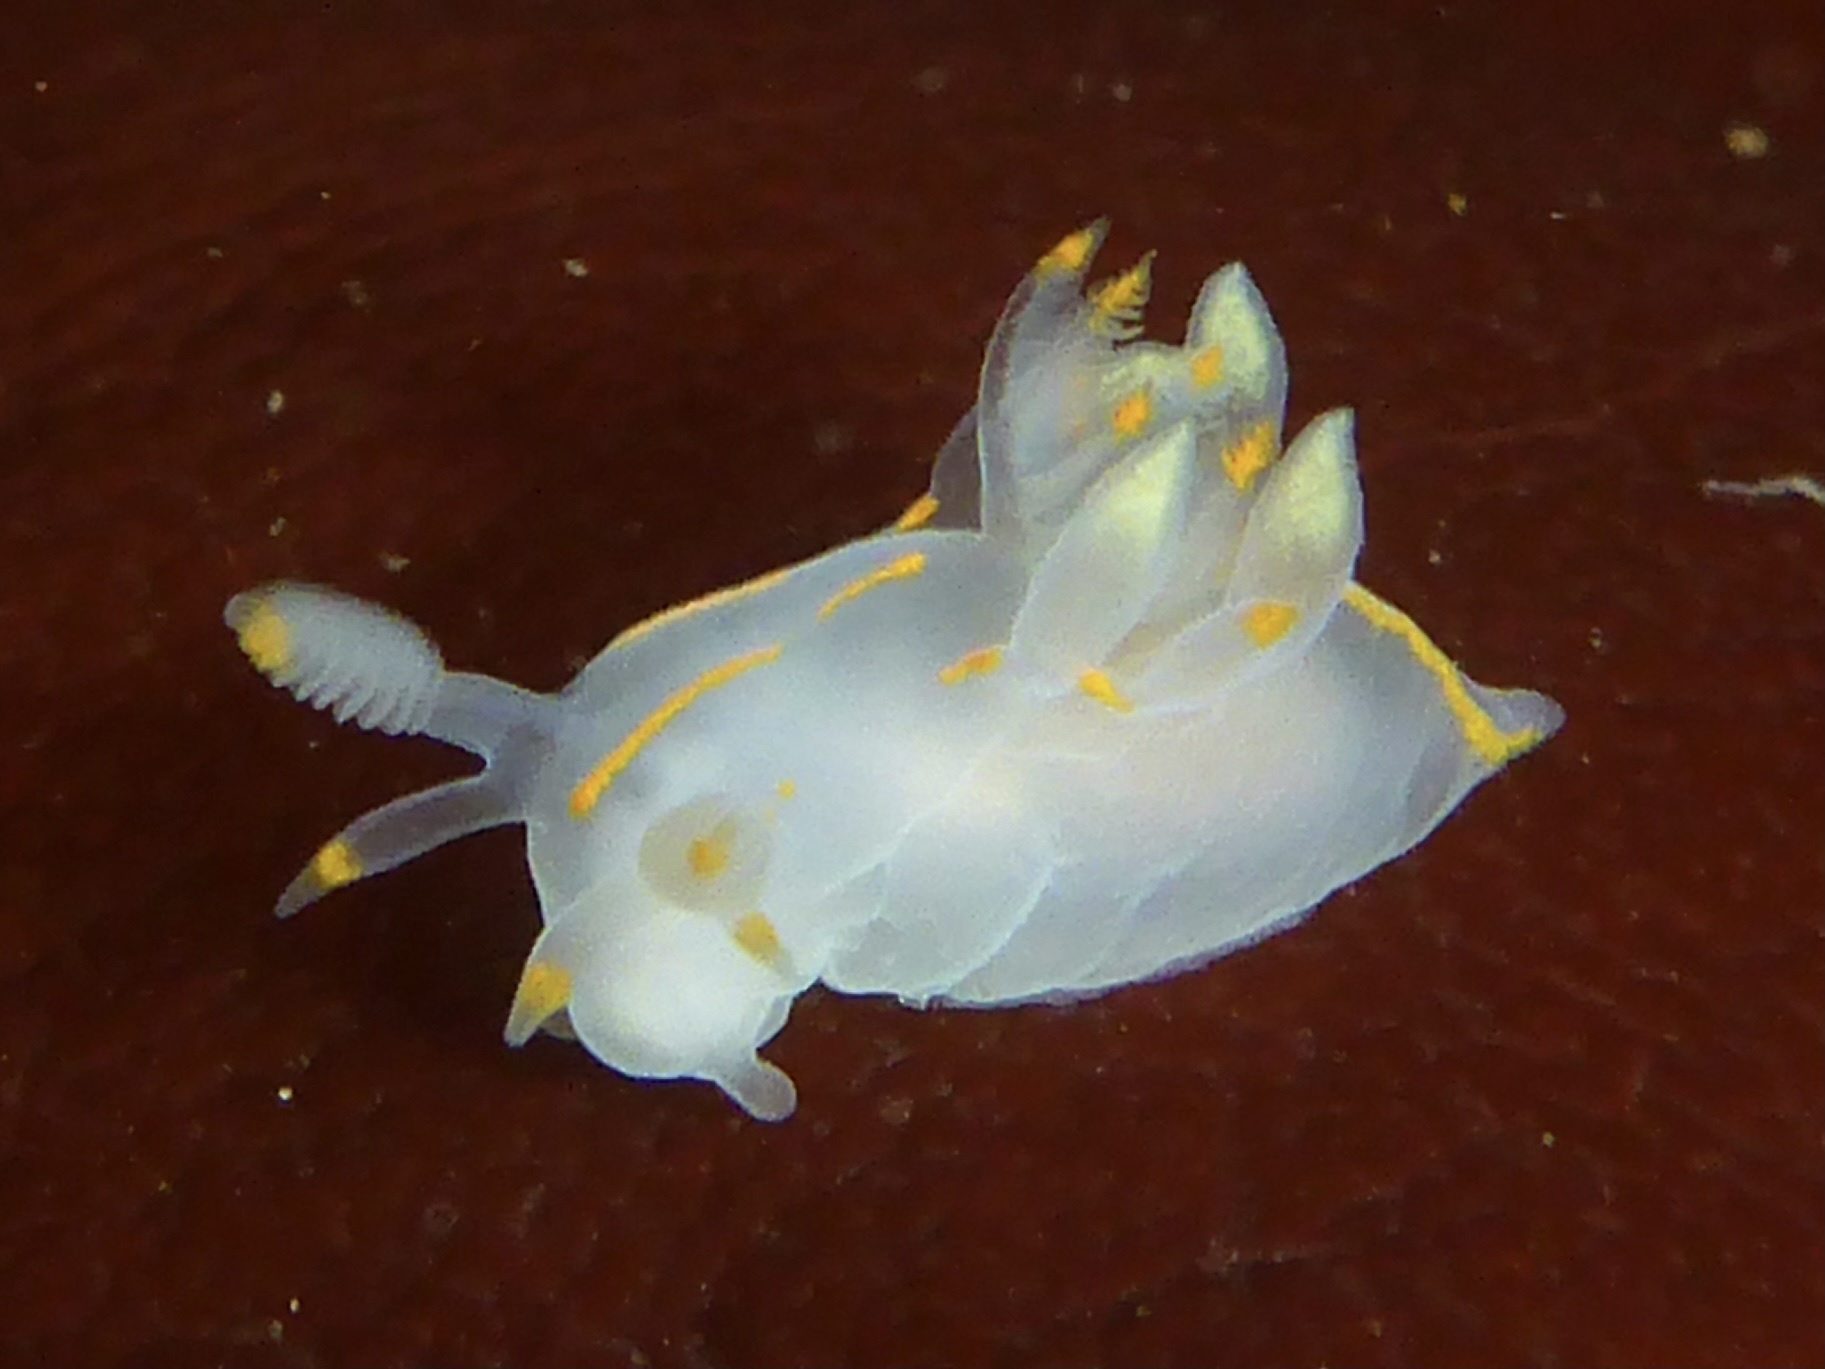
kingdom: Animalia
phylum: Mollusca
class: Gastropoda
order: Nudibranchia
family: Goniodorididae
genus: Ancula
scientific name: Ancula pacifica
